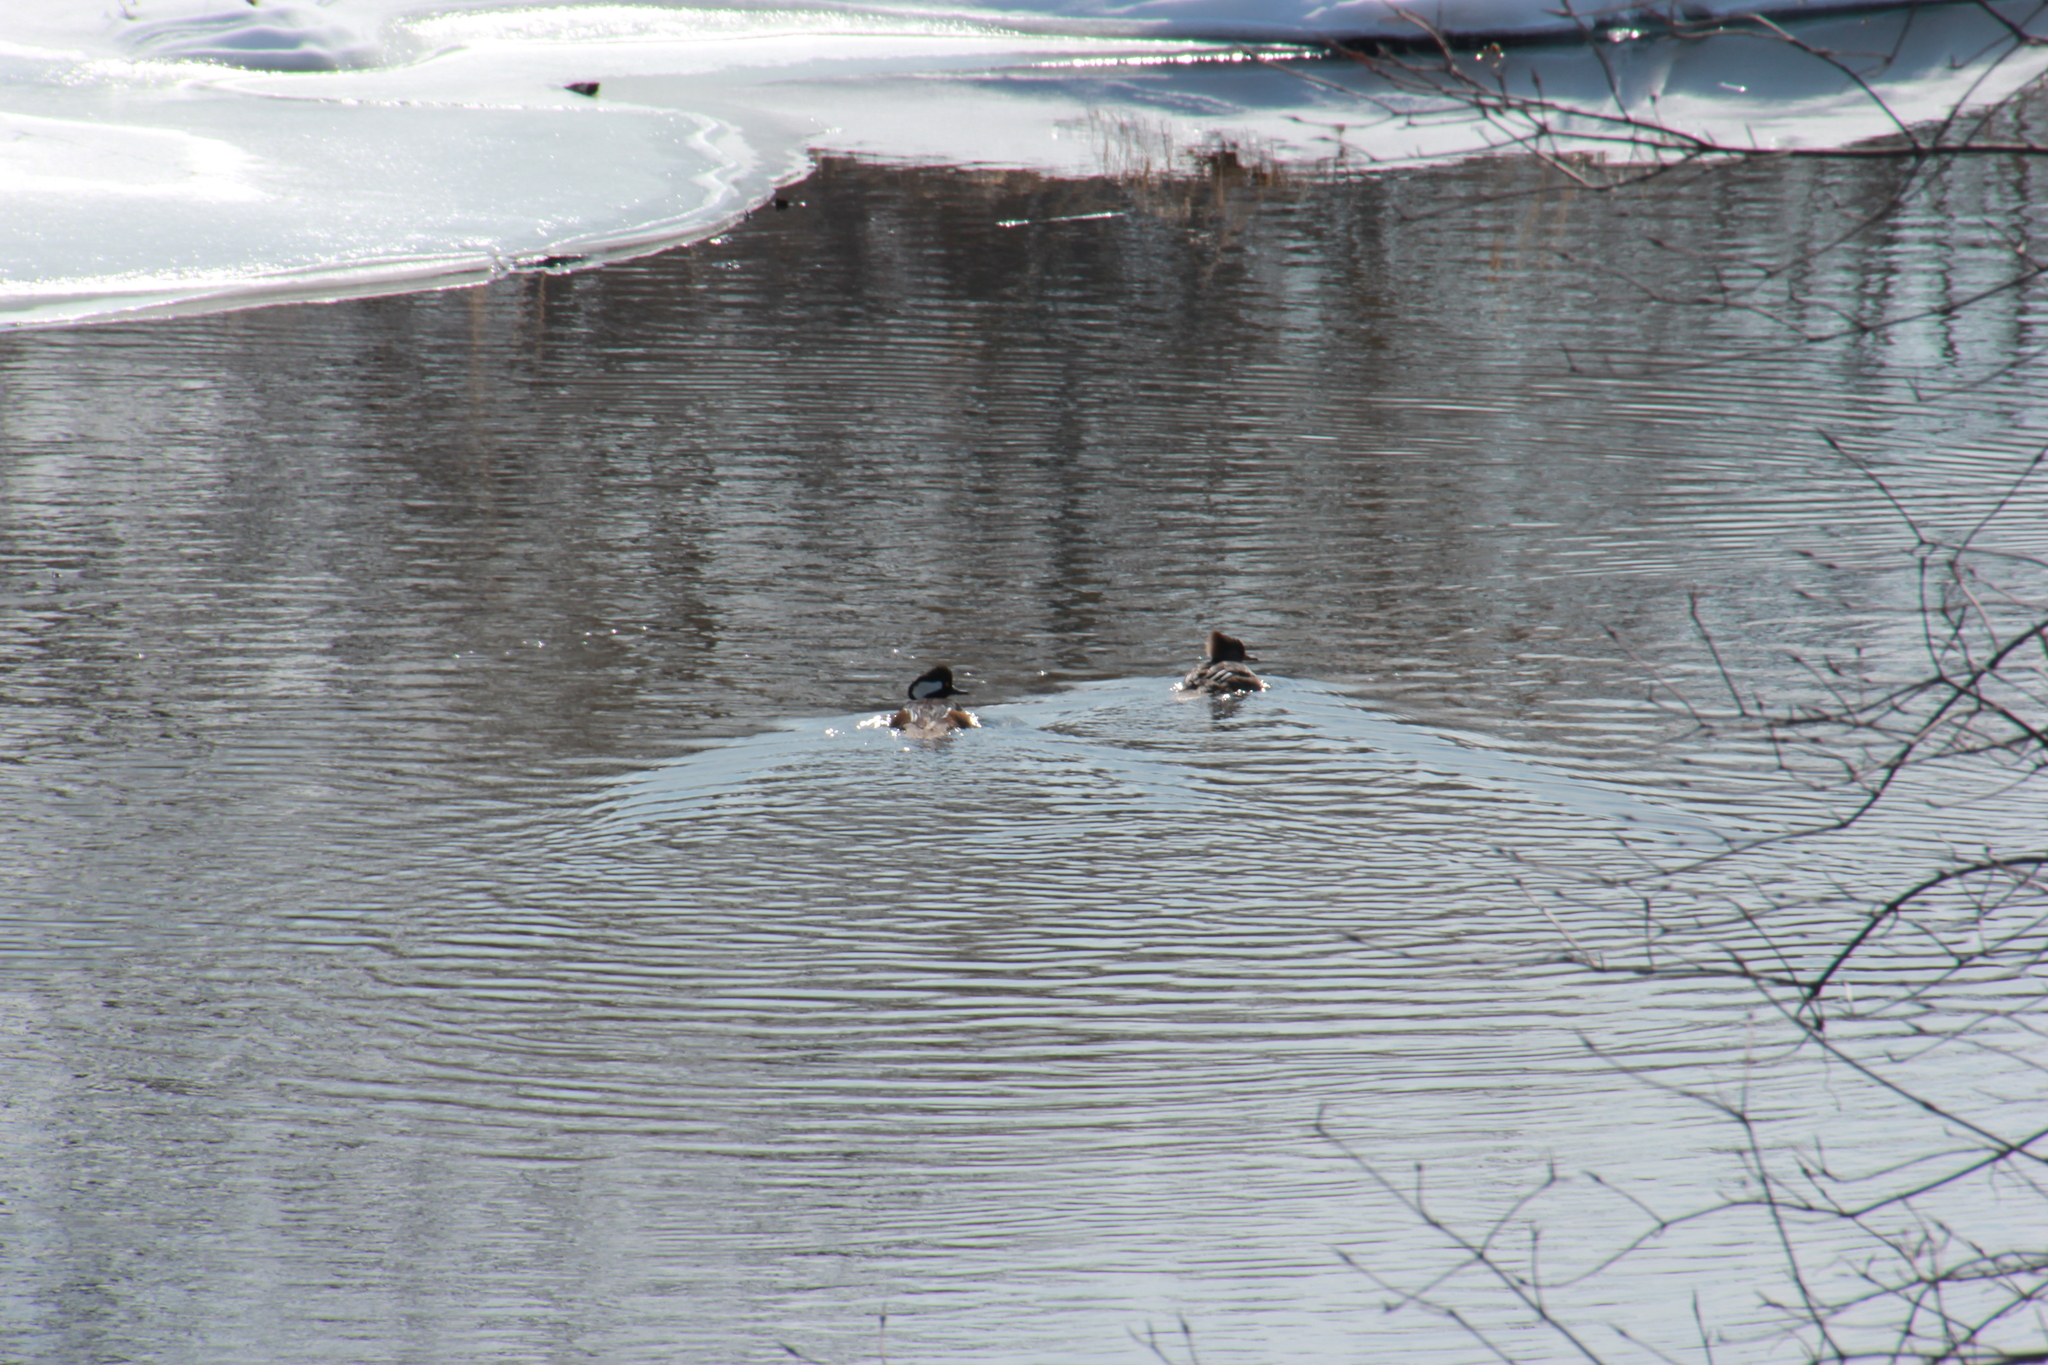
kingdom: Animalia
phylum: Chordata
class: Aves
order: Anseriformes
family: Anatidae
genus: Lophodytes
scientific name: Lophodytes cucullatus
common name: Hooded merganser
